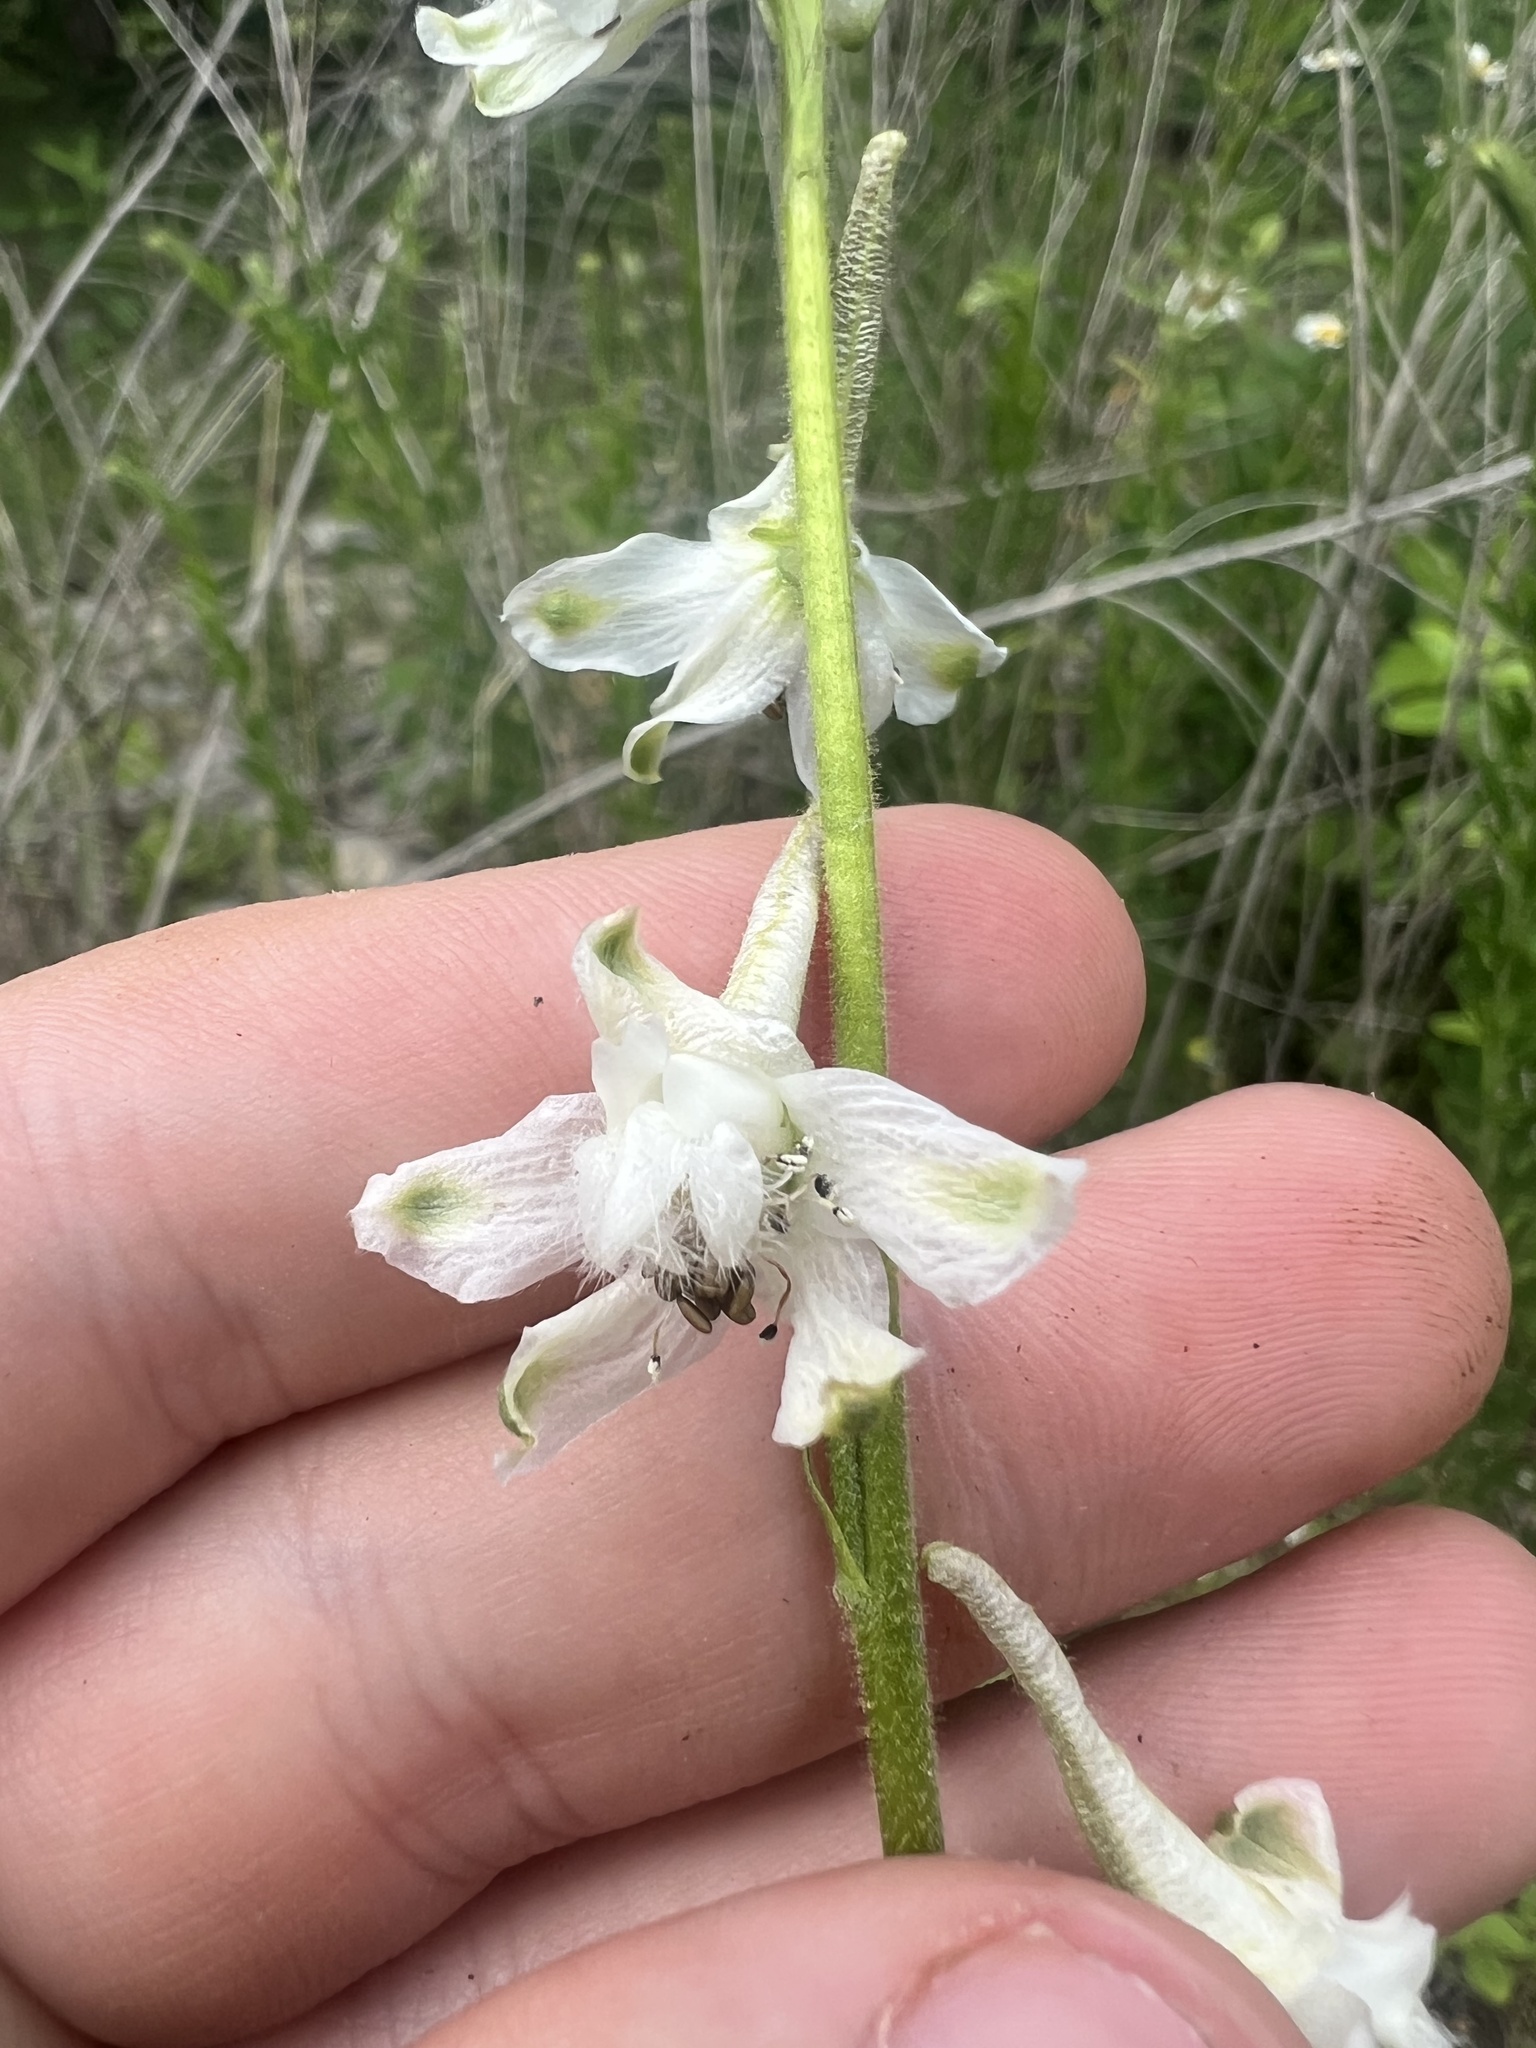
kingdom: Plantae
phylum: Tracheophyta
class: Magnoliopsida
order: Ranunculales
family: Ranunculaceae
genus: Delphinium
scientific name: Delphinium carolinianum
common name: Carolina larkspur
